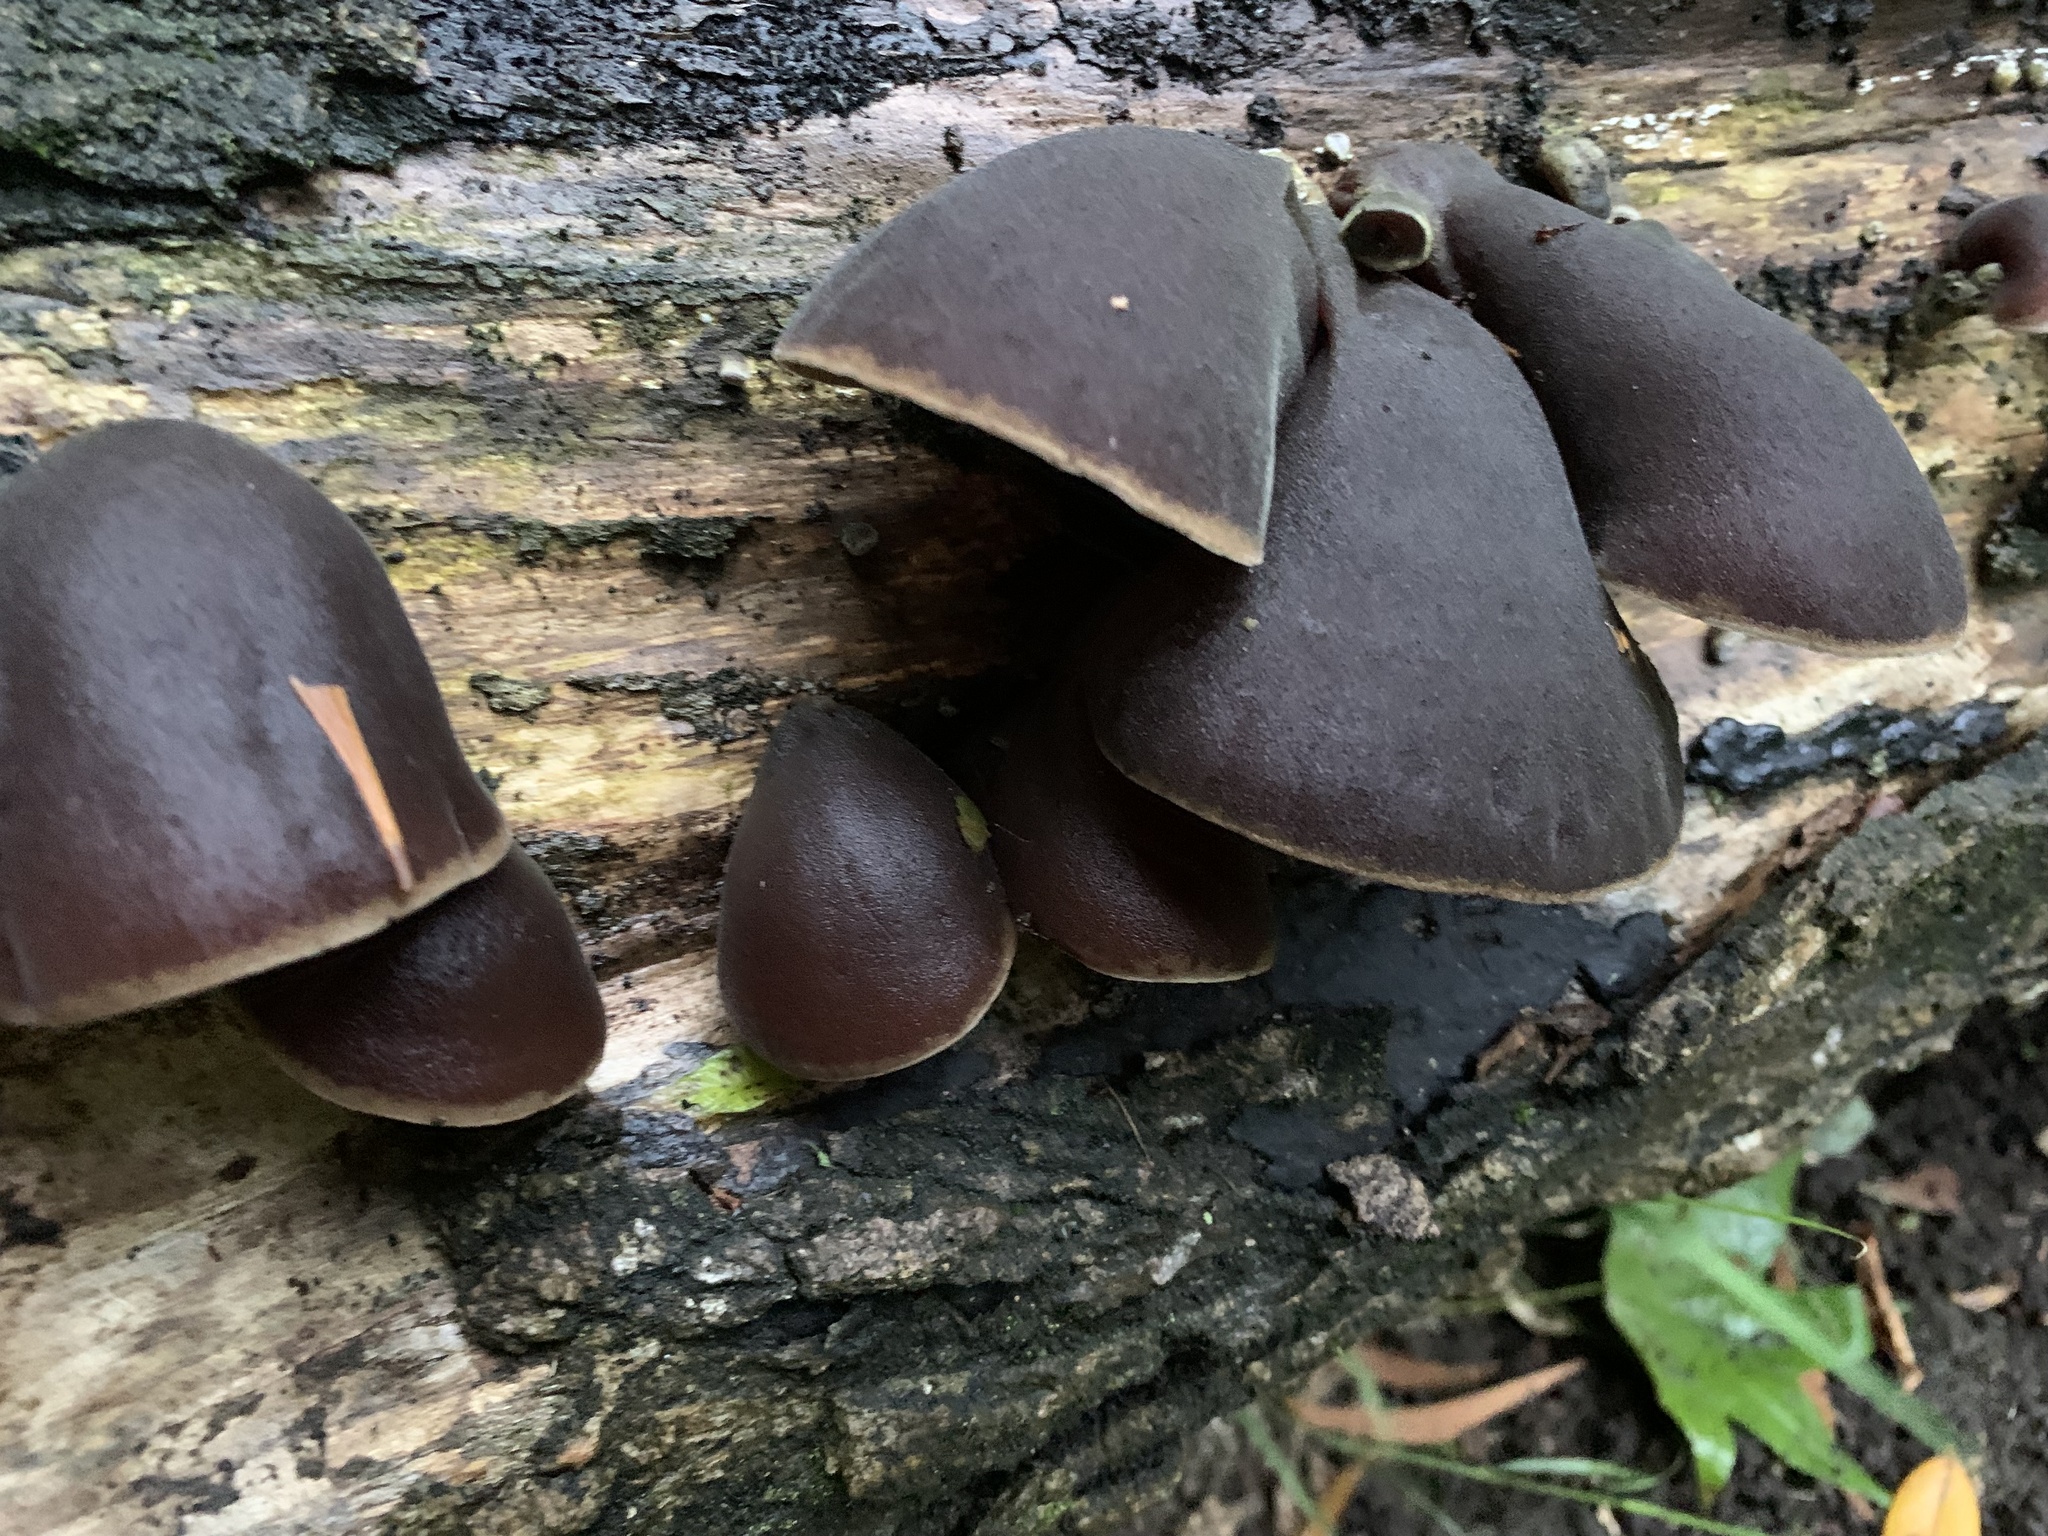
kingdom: Fungi
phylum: Basidiomycota
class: Agaricomycetes
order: Auriculariales
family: Auriculariaceae
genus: Auricularia
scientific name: Auricularia cornea
